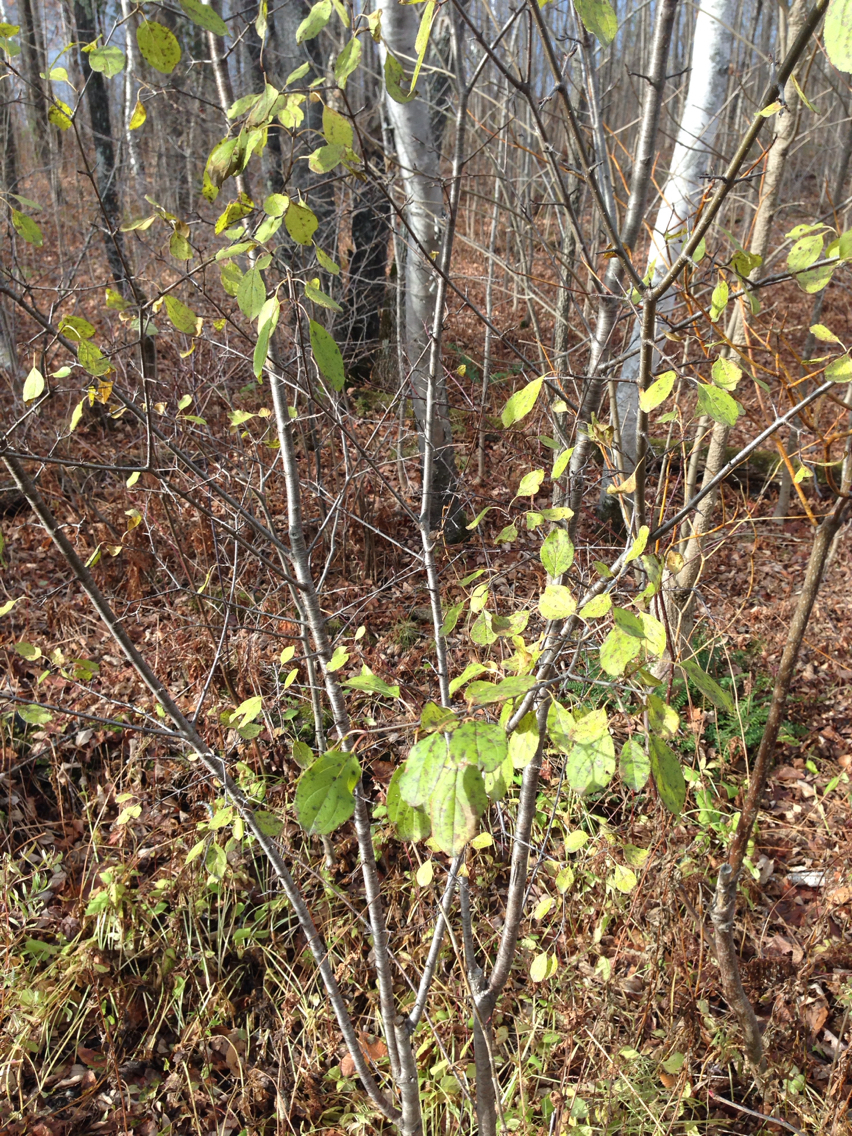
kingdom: Plantae
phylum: Tracheophyta
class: Magnoliopsida
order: Rosales
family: Rhamnaceae
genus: Rhamnus
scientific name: Rhamnus cathartica
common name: Common buckthorn
